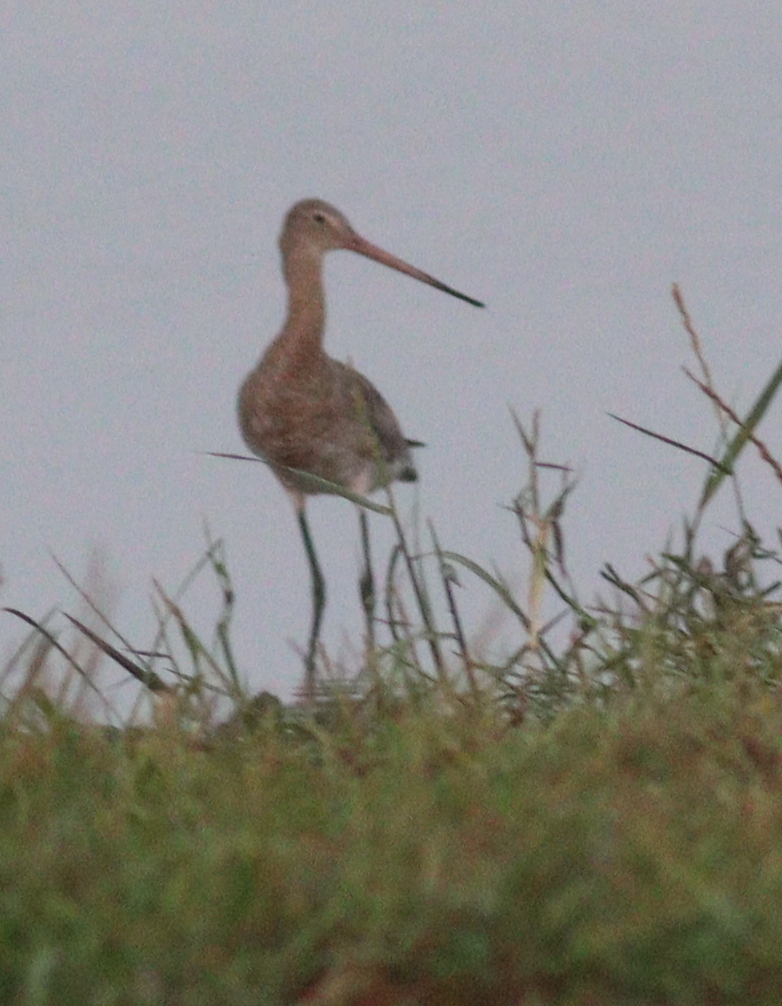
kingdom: Animalia
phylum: Chordata
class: Aves
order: Charadriiformes
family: Scolopacidae
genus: Limosa
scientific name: Limosa limosa
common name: Black-tailed godwit
